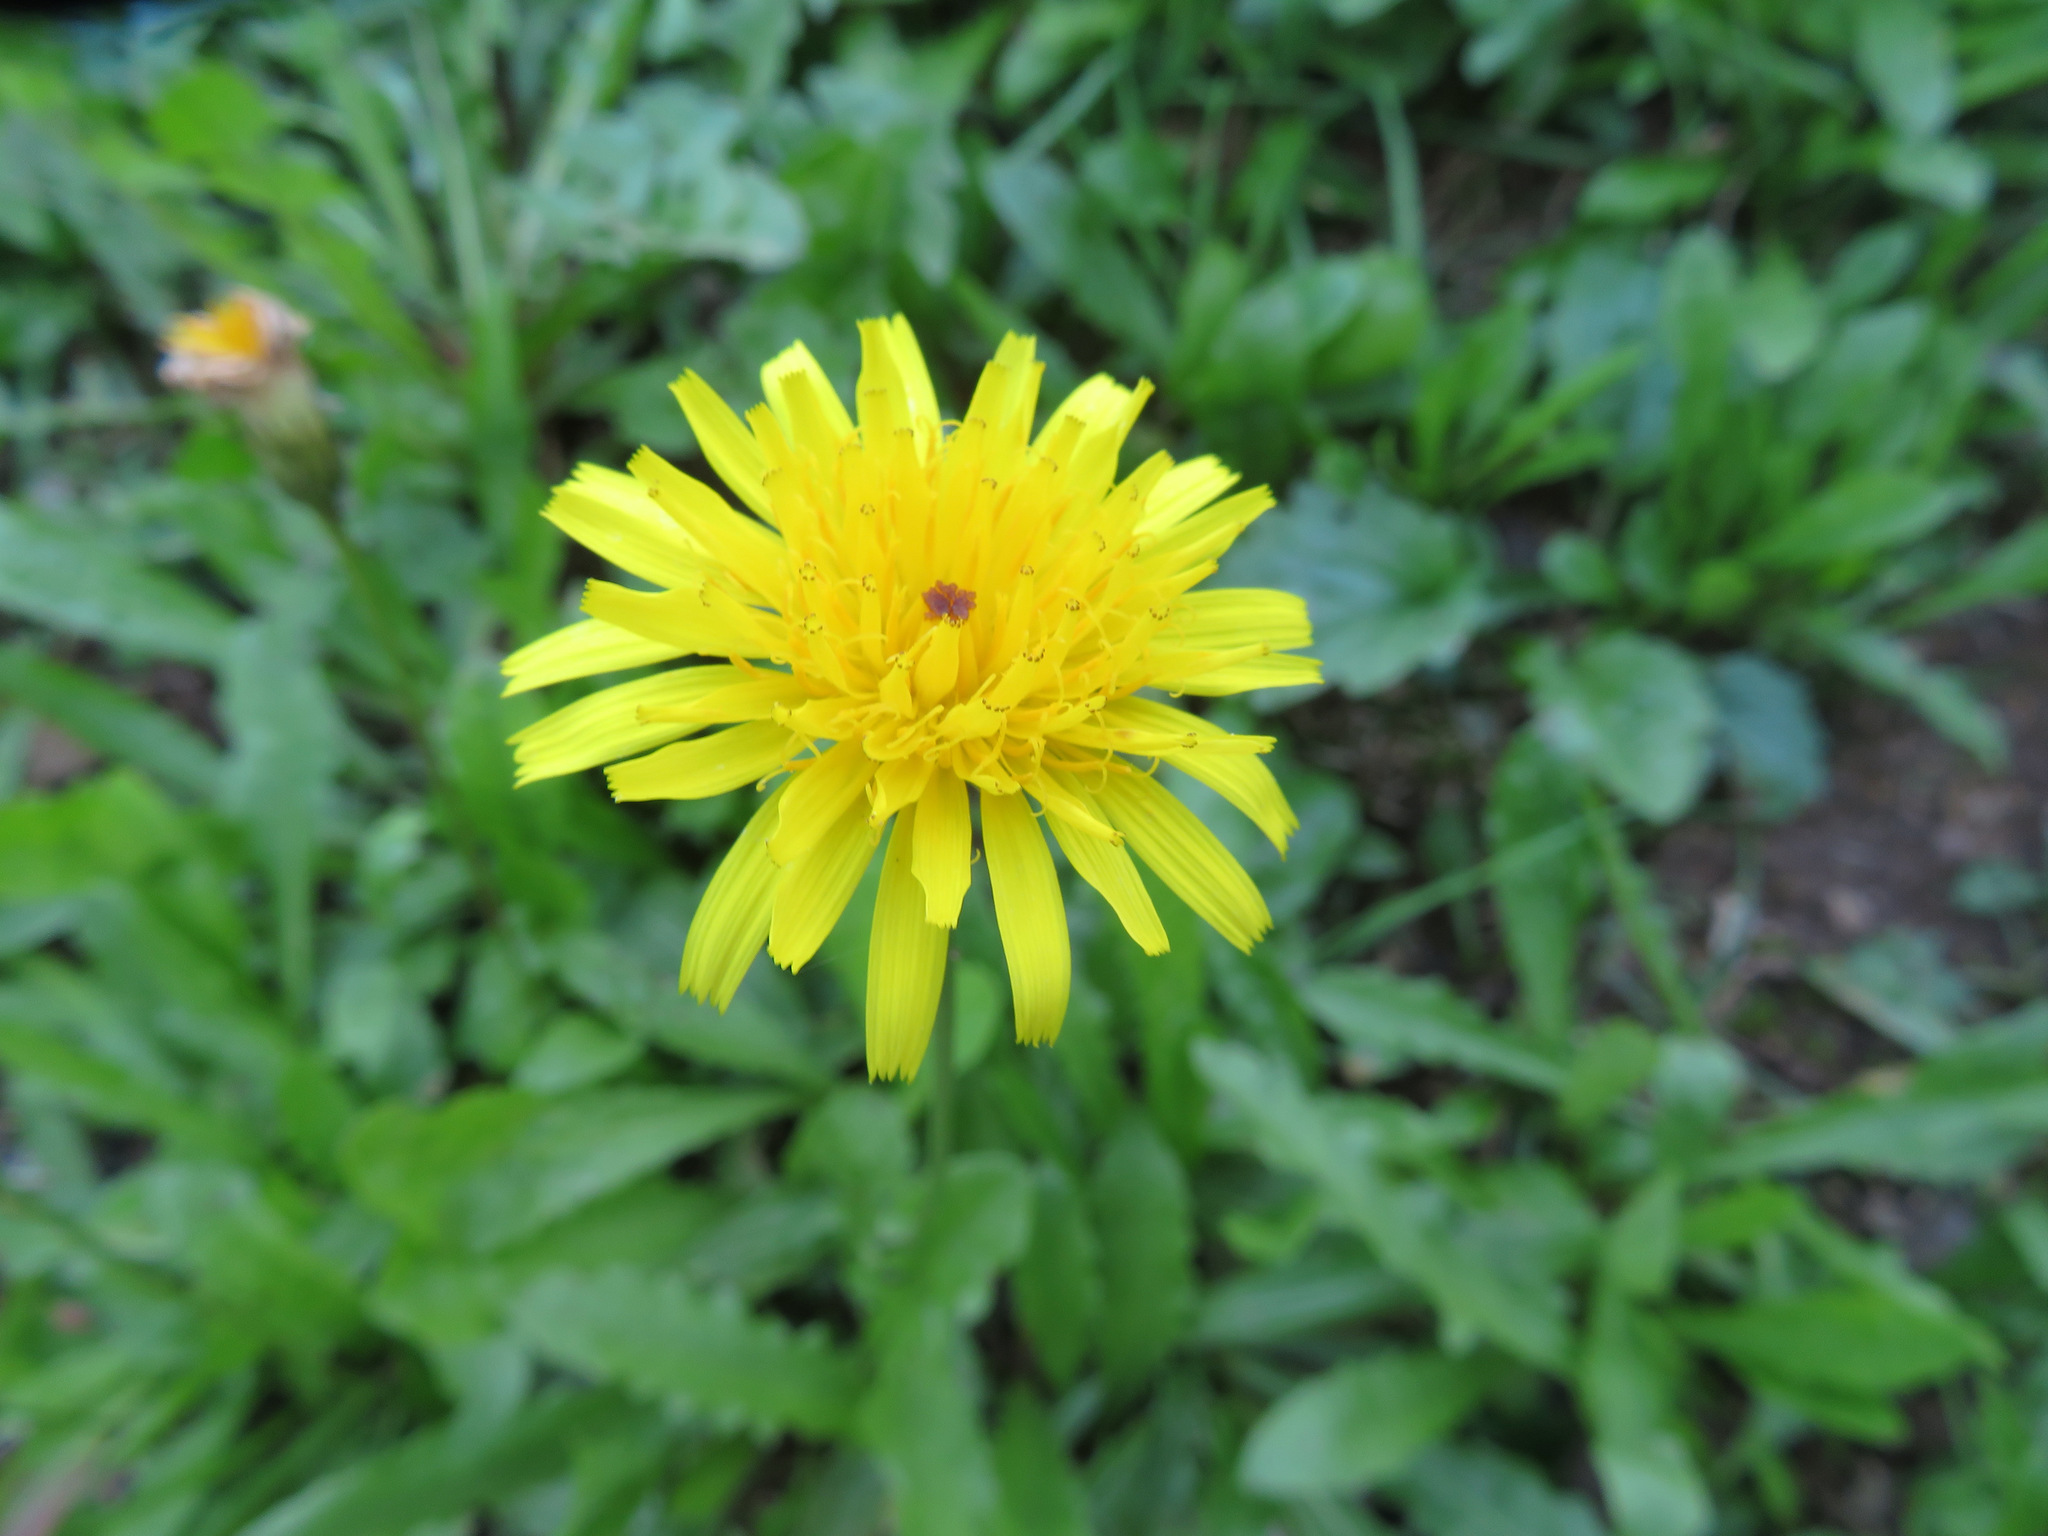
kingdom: Plantae
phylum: Tracheophyta
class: Magnoliopsida
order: Asterales
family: Asteraceae
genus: Leontodon
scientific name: Leontodon hispidus
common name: Rough hawkbit
